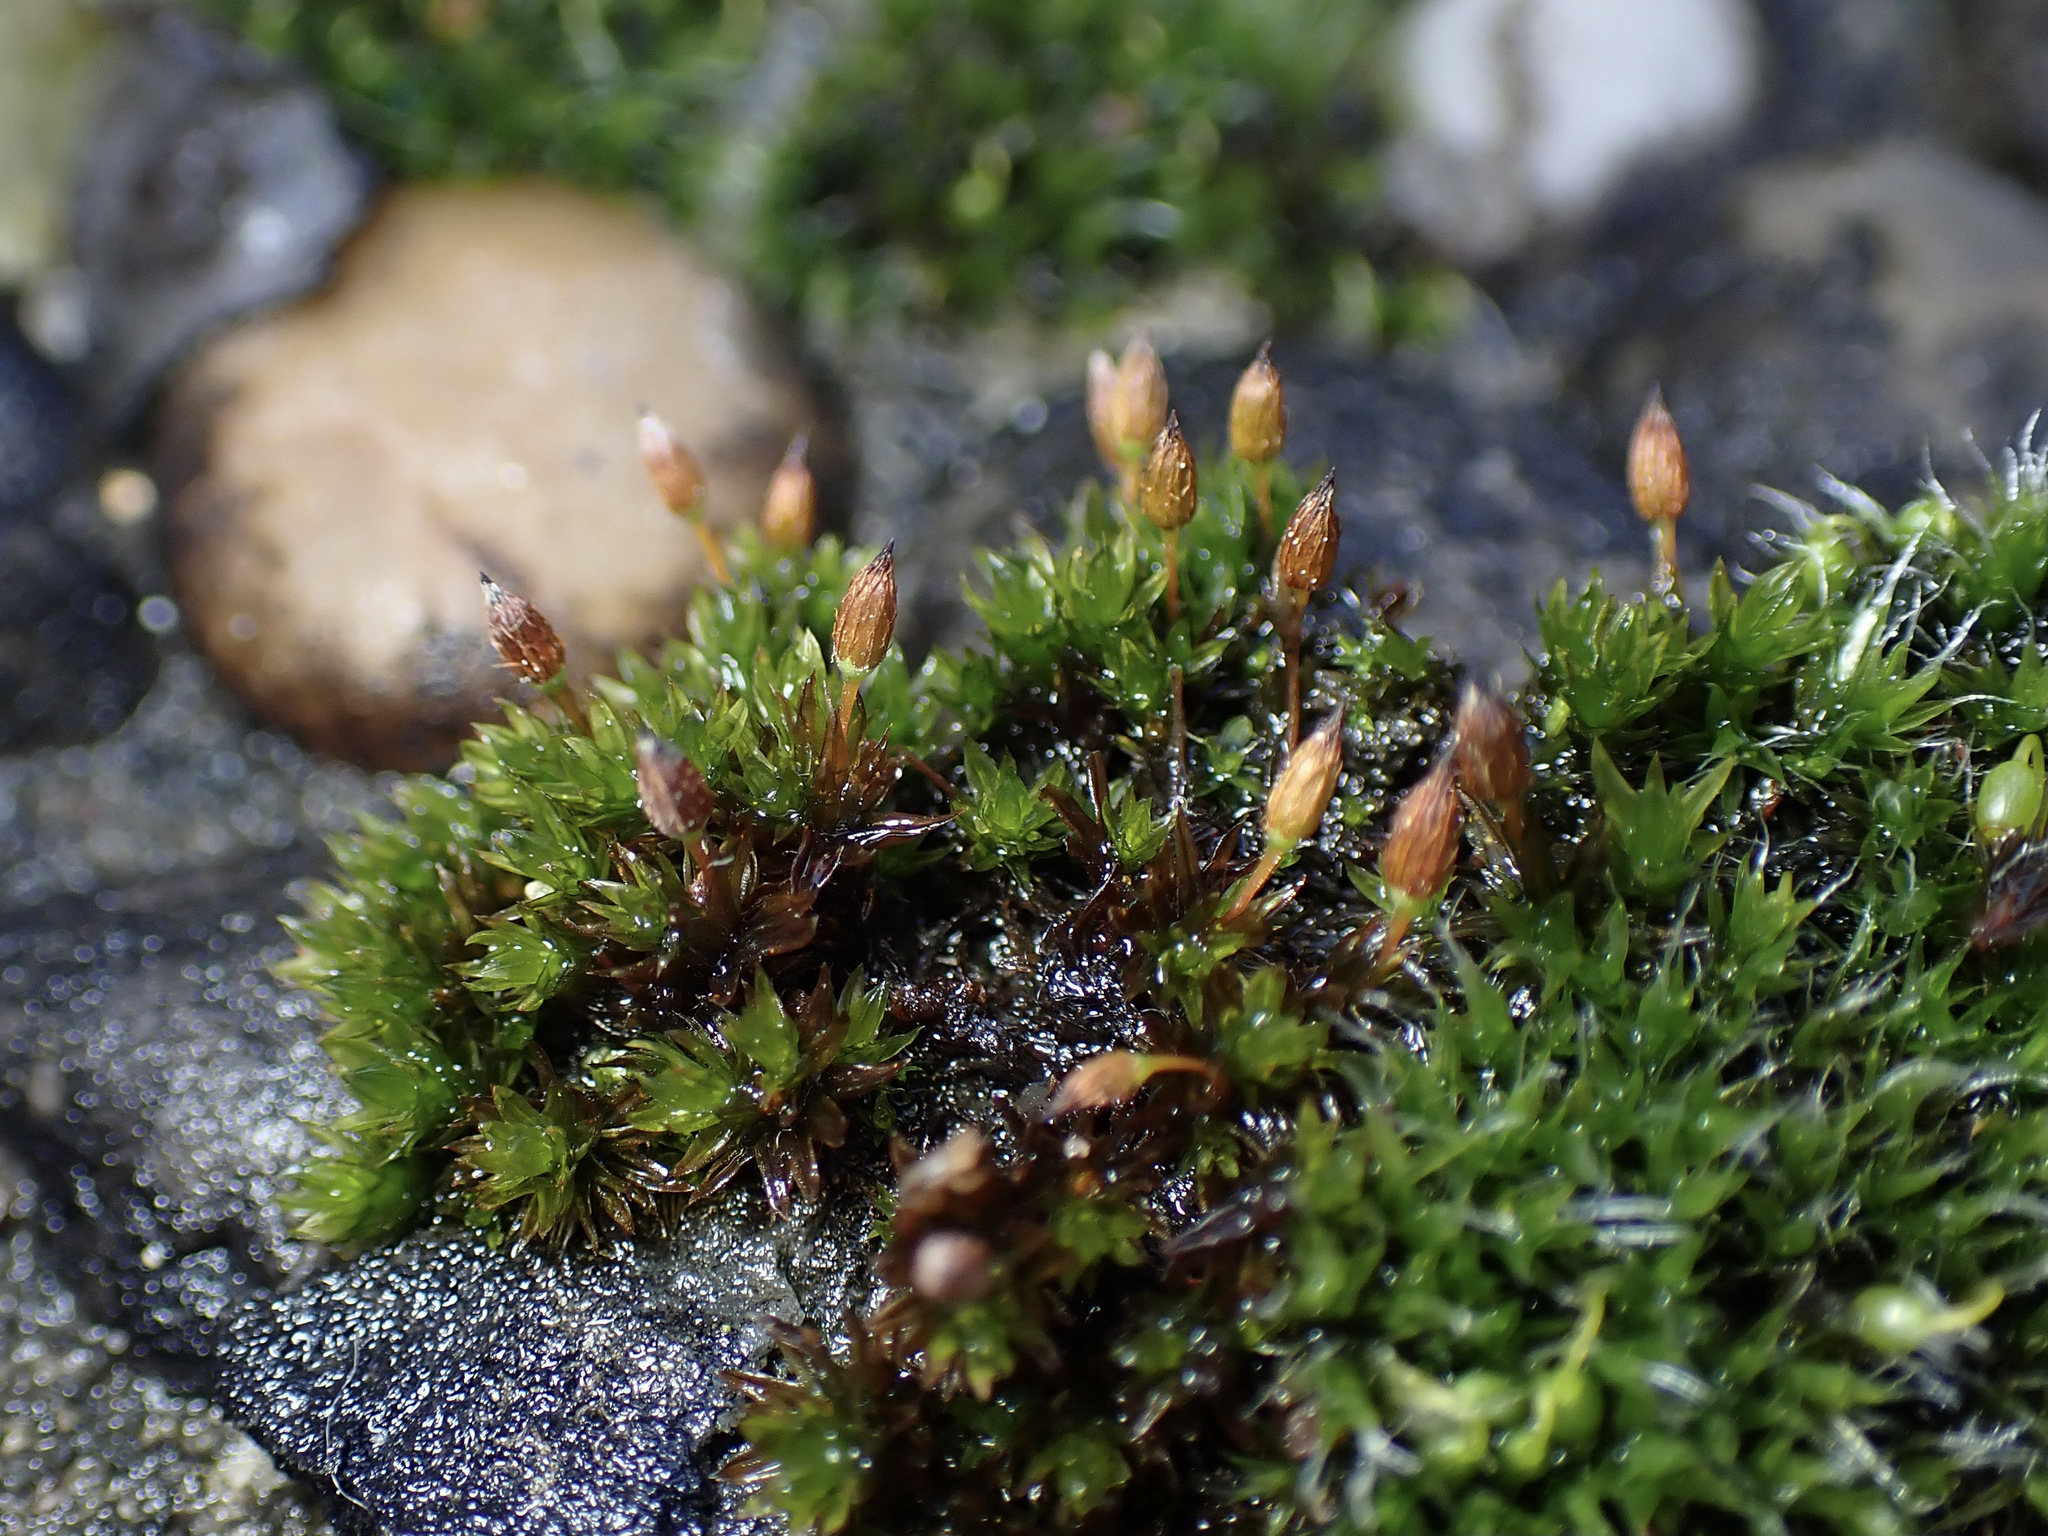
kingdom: Plantae
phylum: Bryophyta
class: Bryopsida
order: Orthotrichales
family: Orthotrichaceae
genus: Orthotrichum
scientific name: Orthotrichum anomalum
